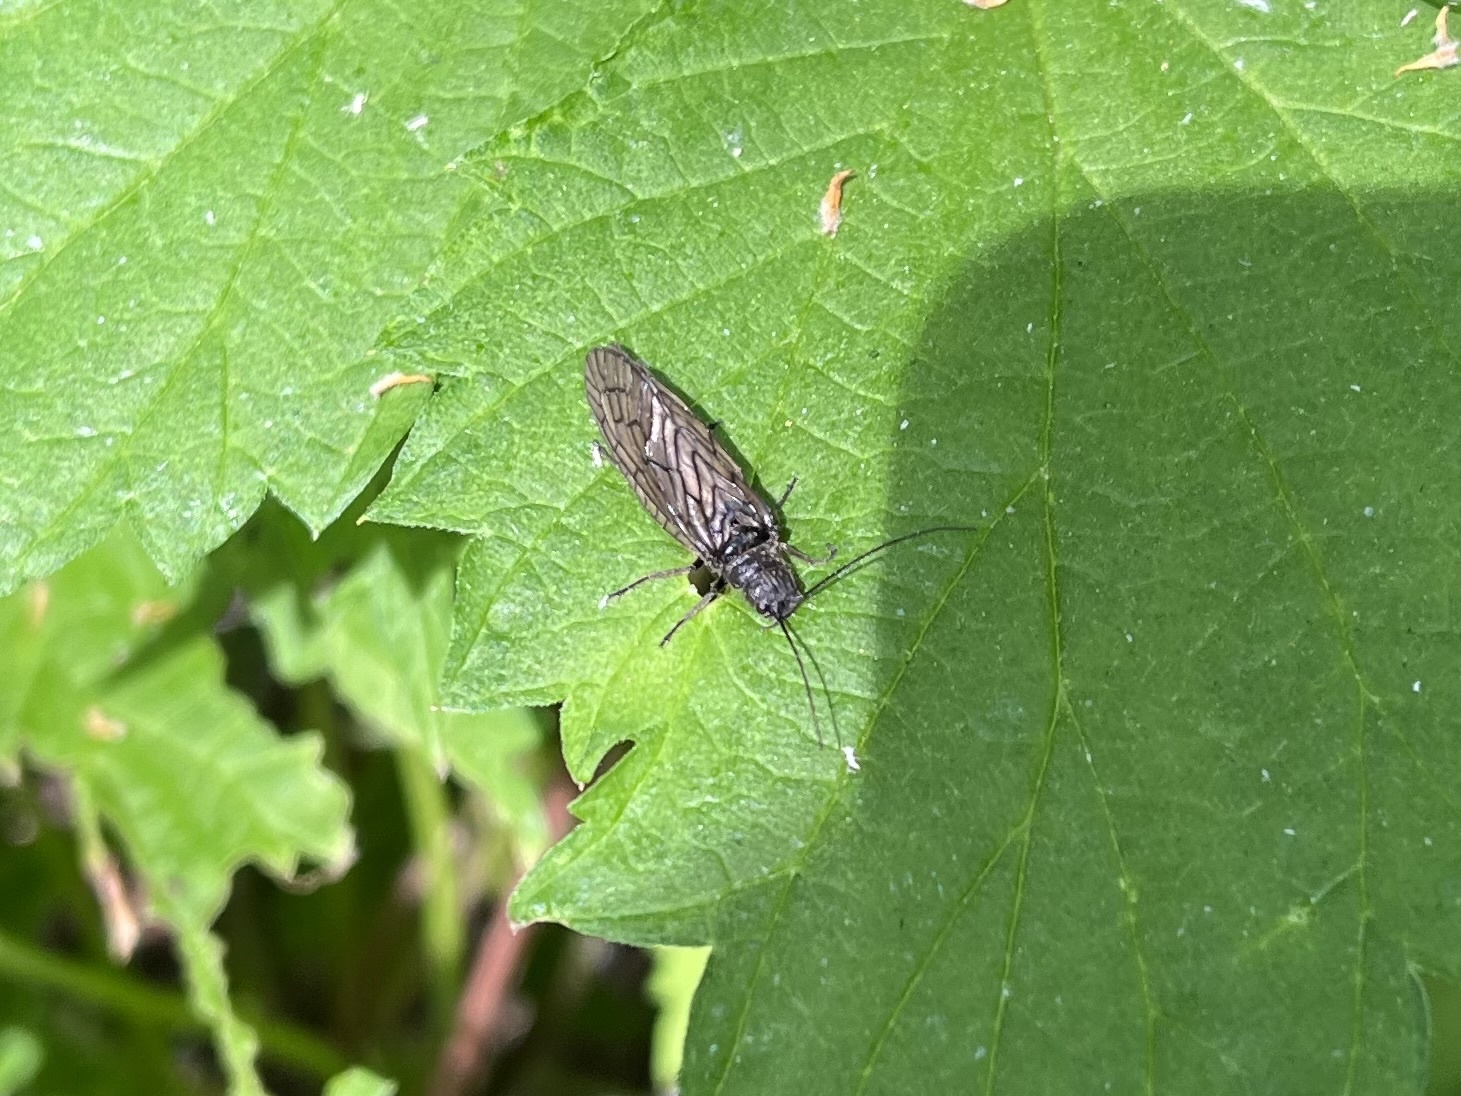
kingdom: Animalia
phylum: Arthropoda
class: Insecta
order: Megaloptera
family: Sialidae
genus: Sialis
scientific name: Sialis
